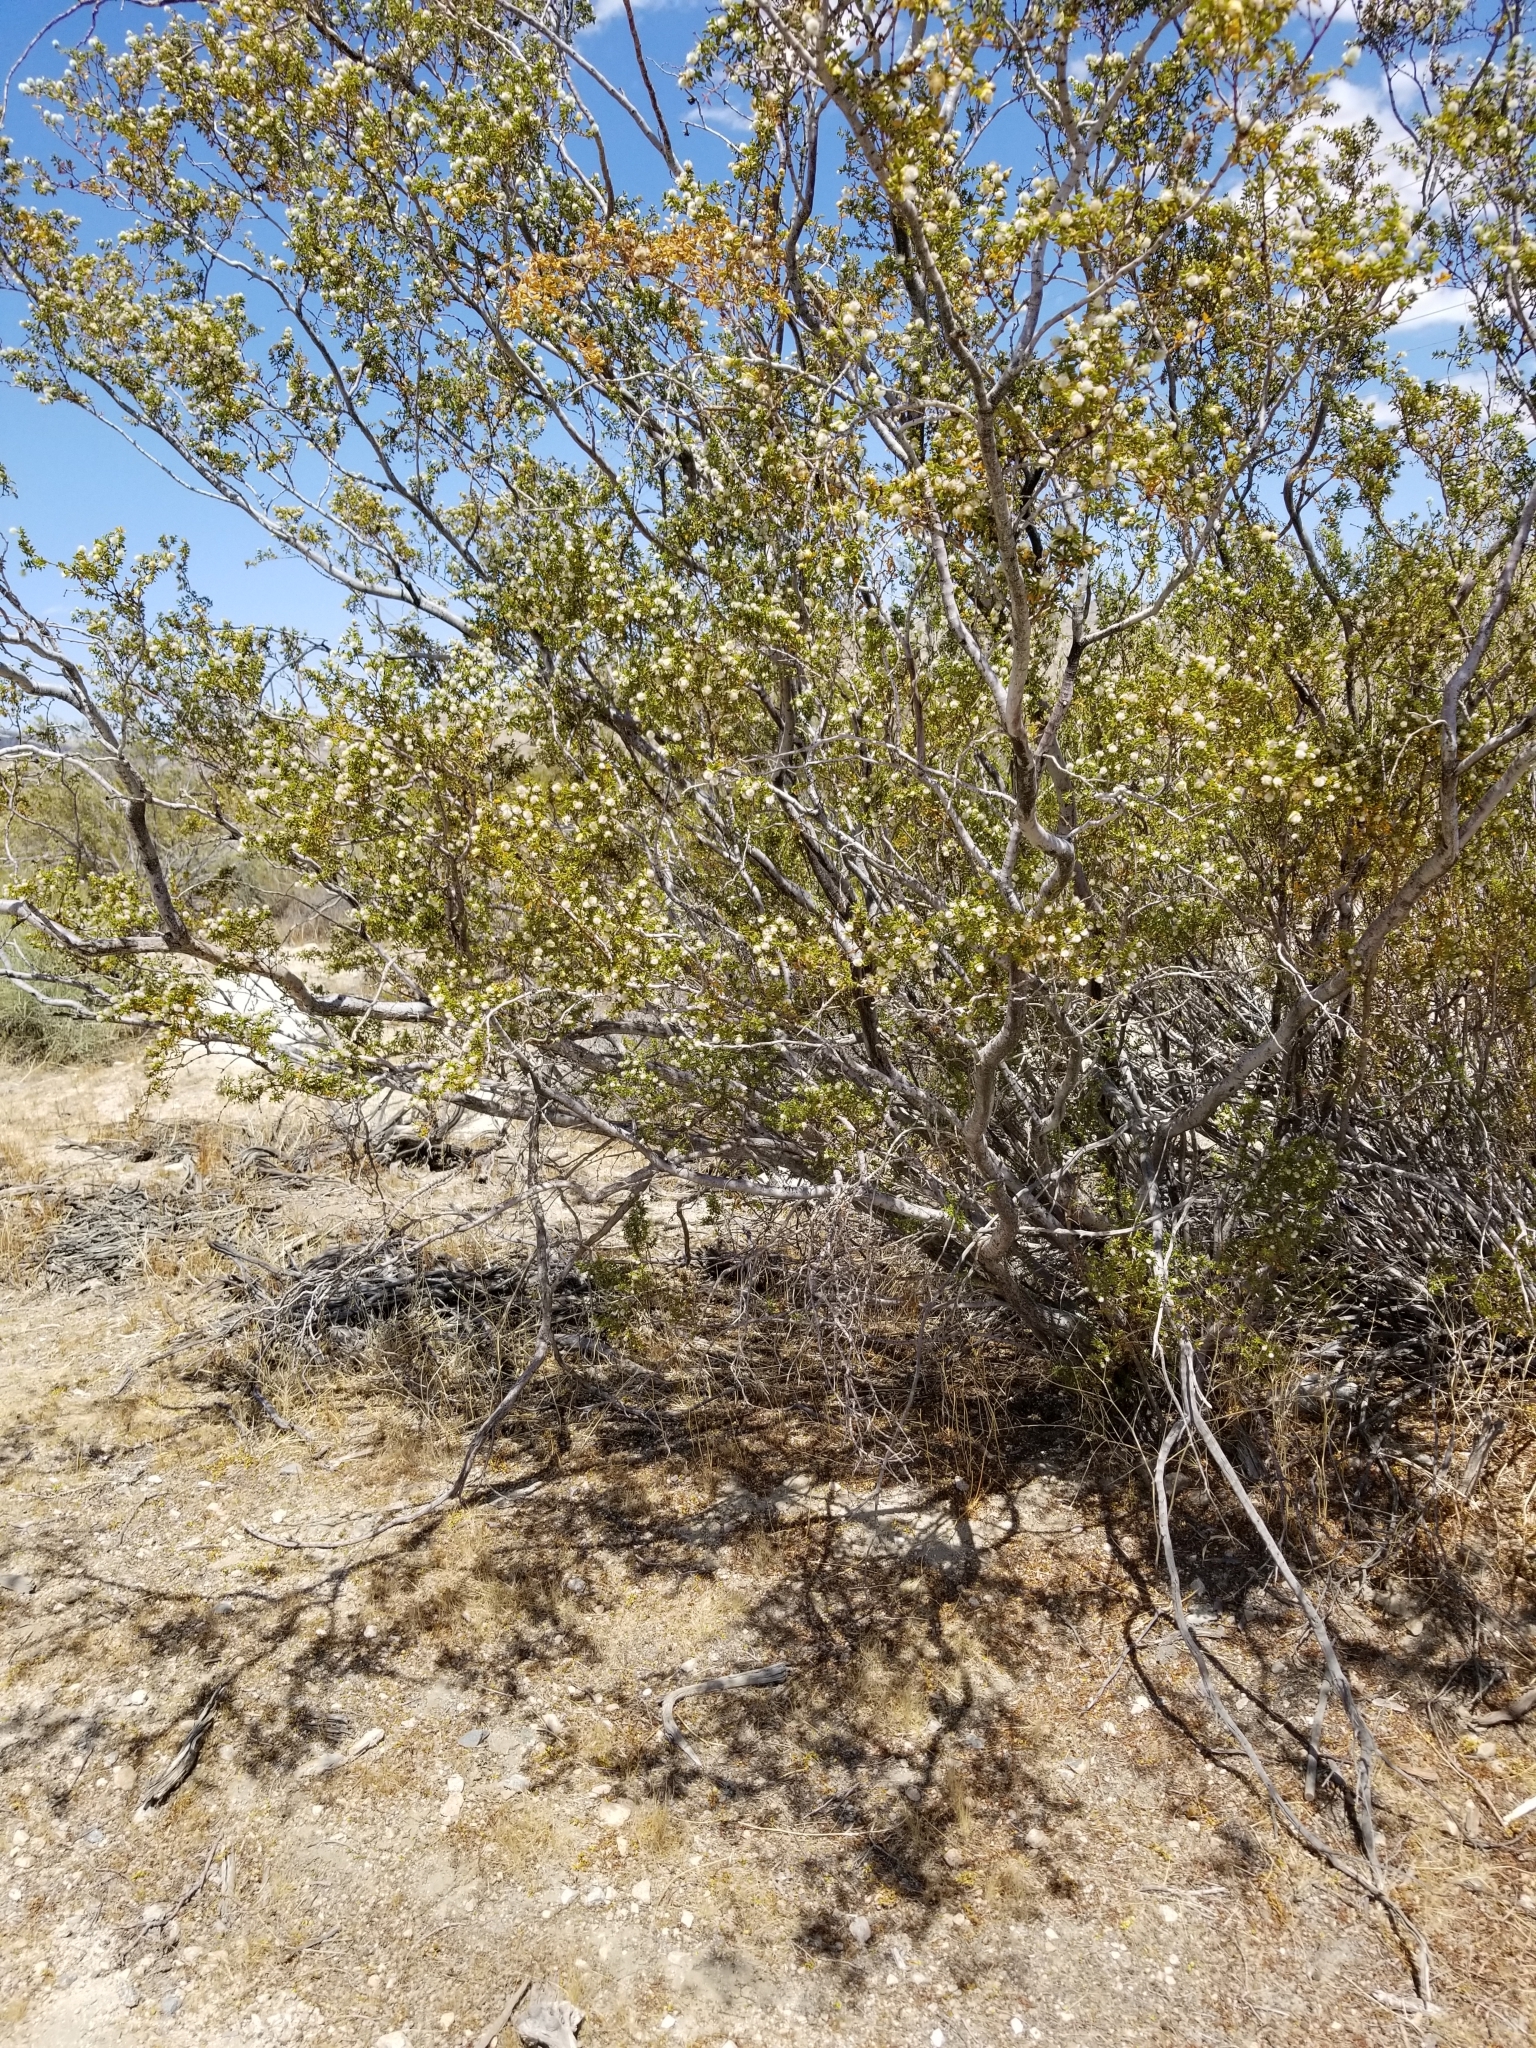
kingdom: Plantae
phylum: Tracheophyta
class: Magnoliopsida
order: Zygophyllales
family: Zygophyllaceae
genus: Larrea
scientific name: Larrea tridentata
